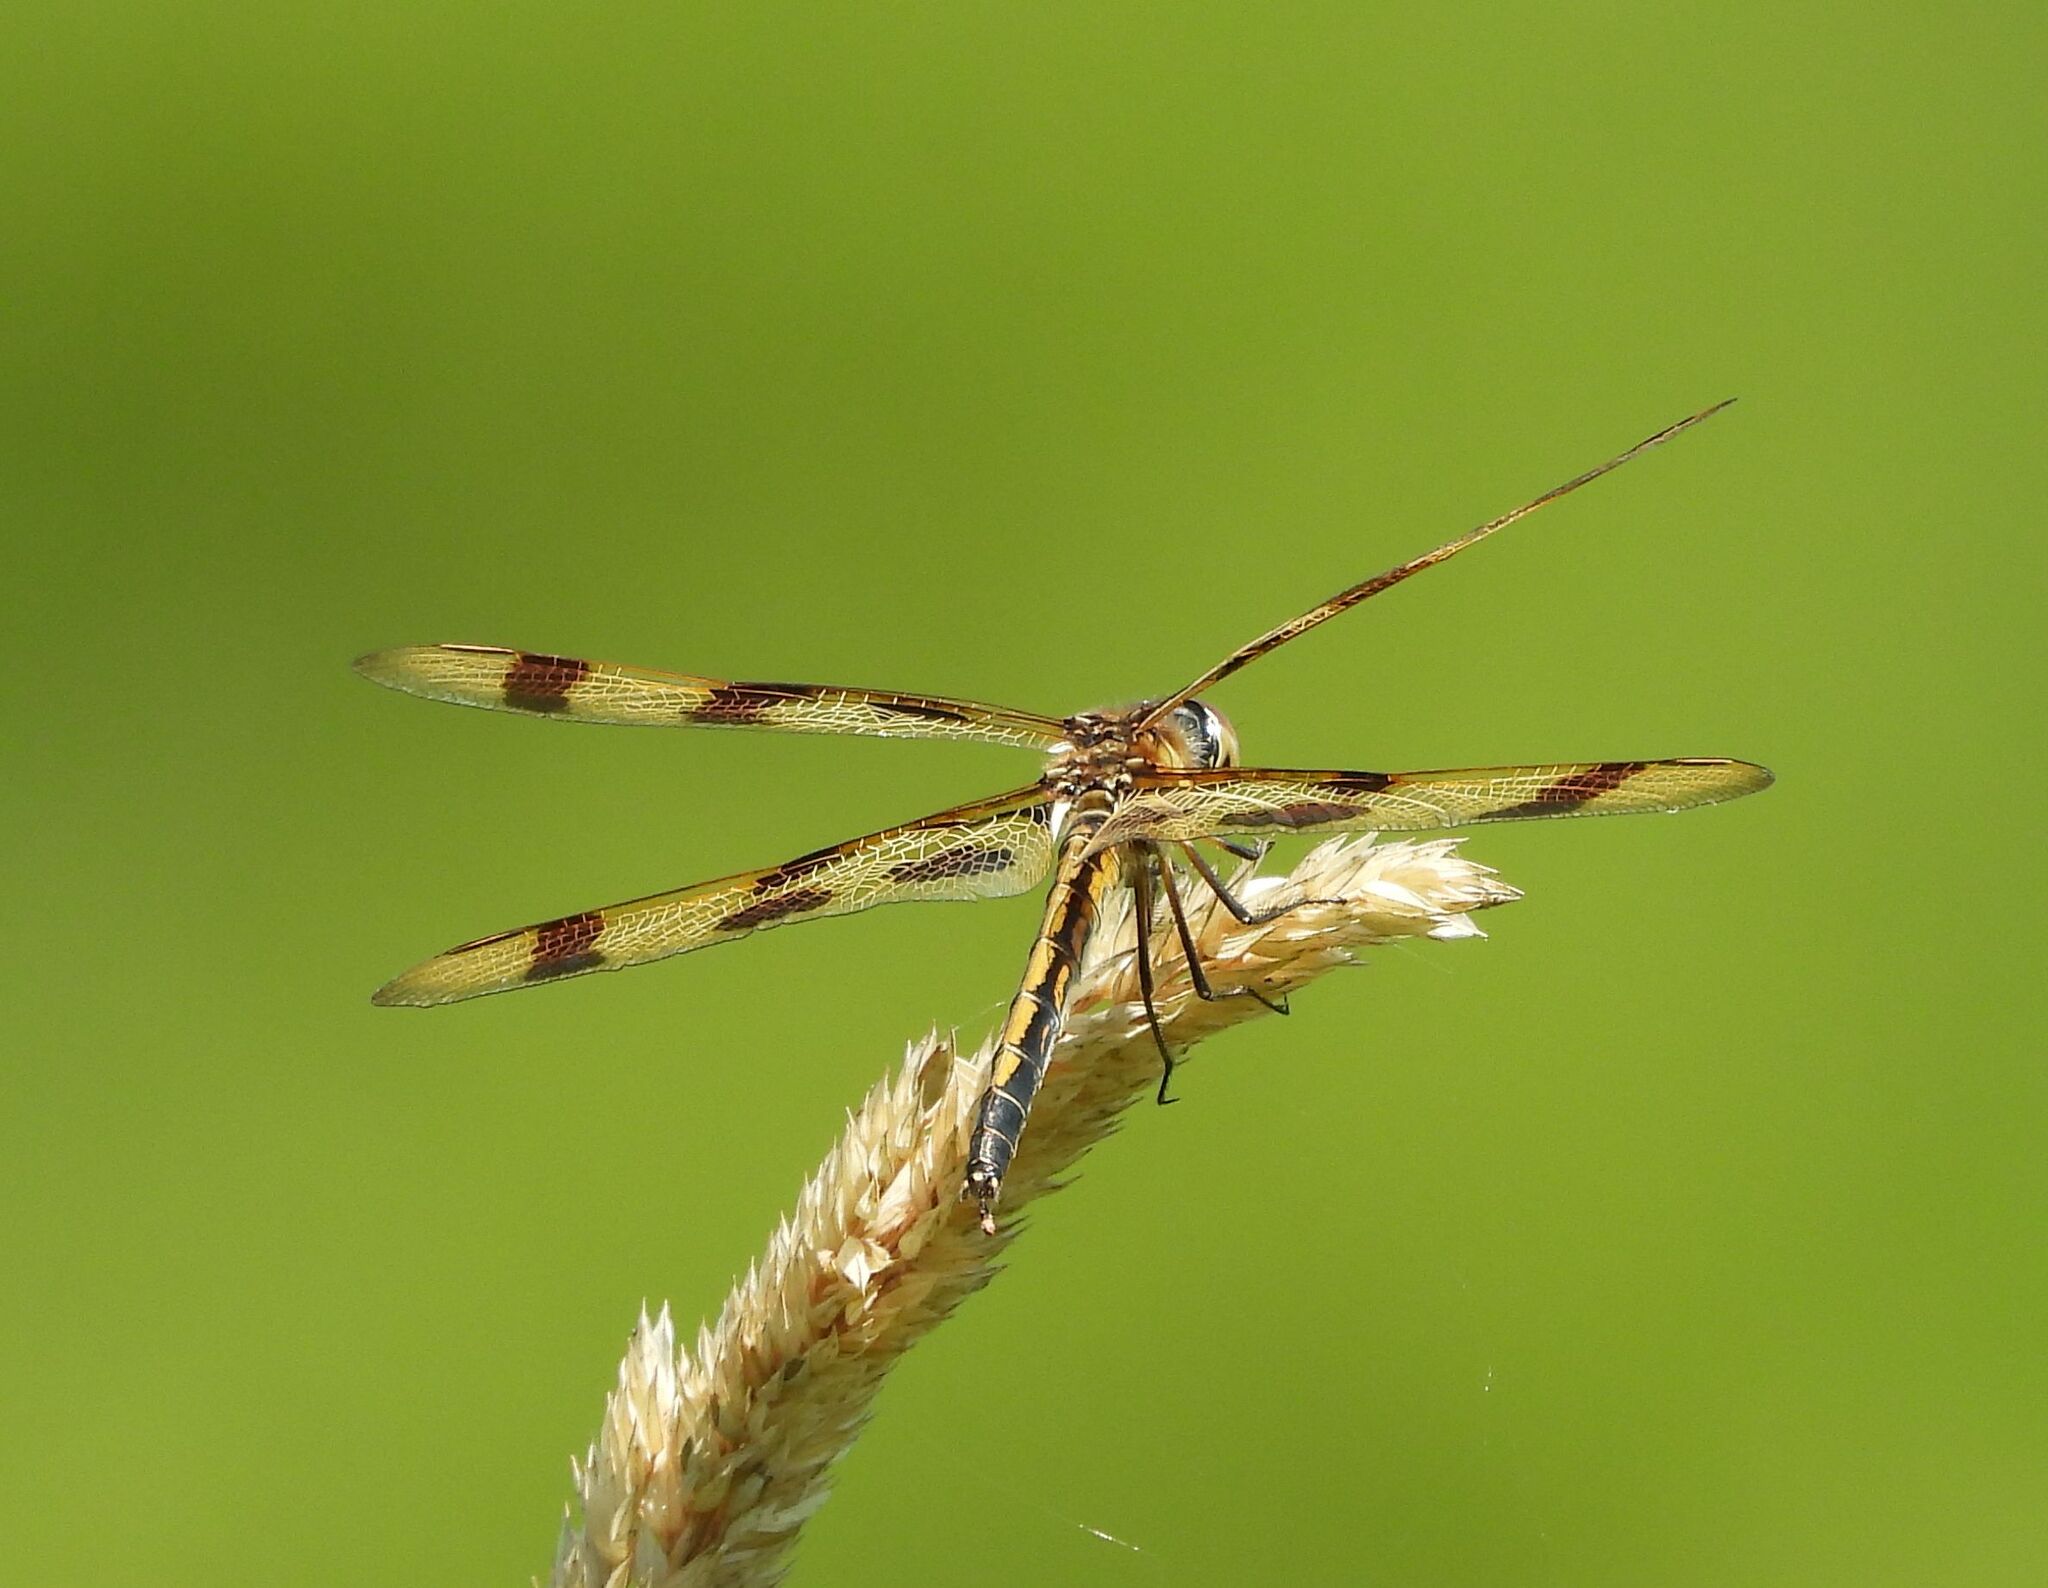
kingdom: Animalia
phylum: Arthropoda
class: Insecta
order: Odonata
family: Libellulidae
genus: Celithemis
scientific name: Celithemis eponina
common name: Halloween pennant
